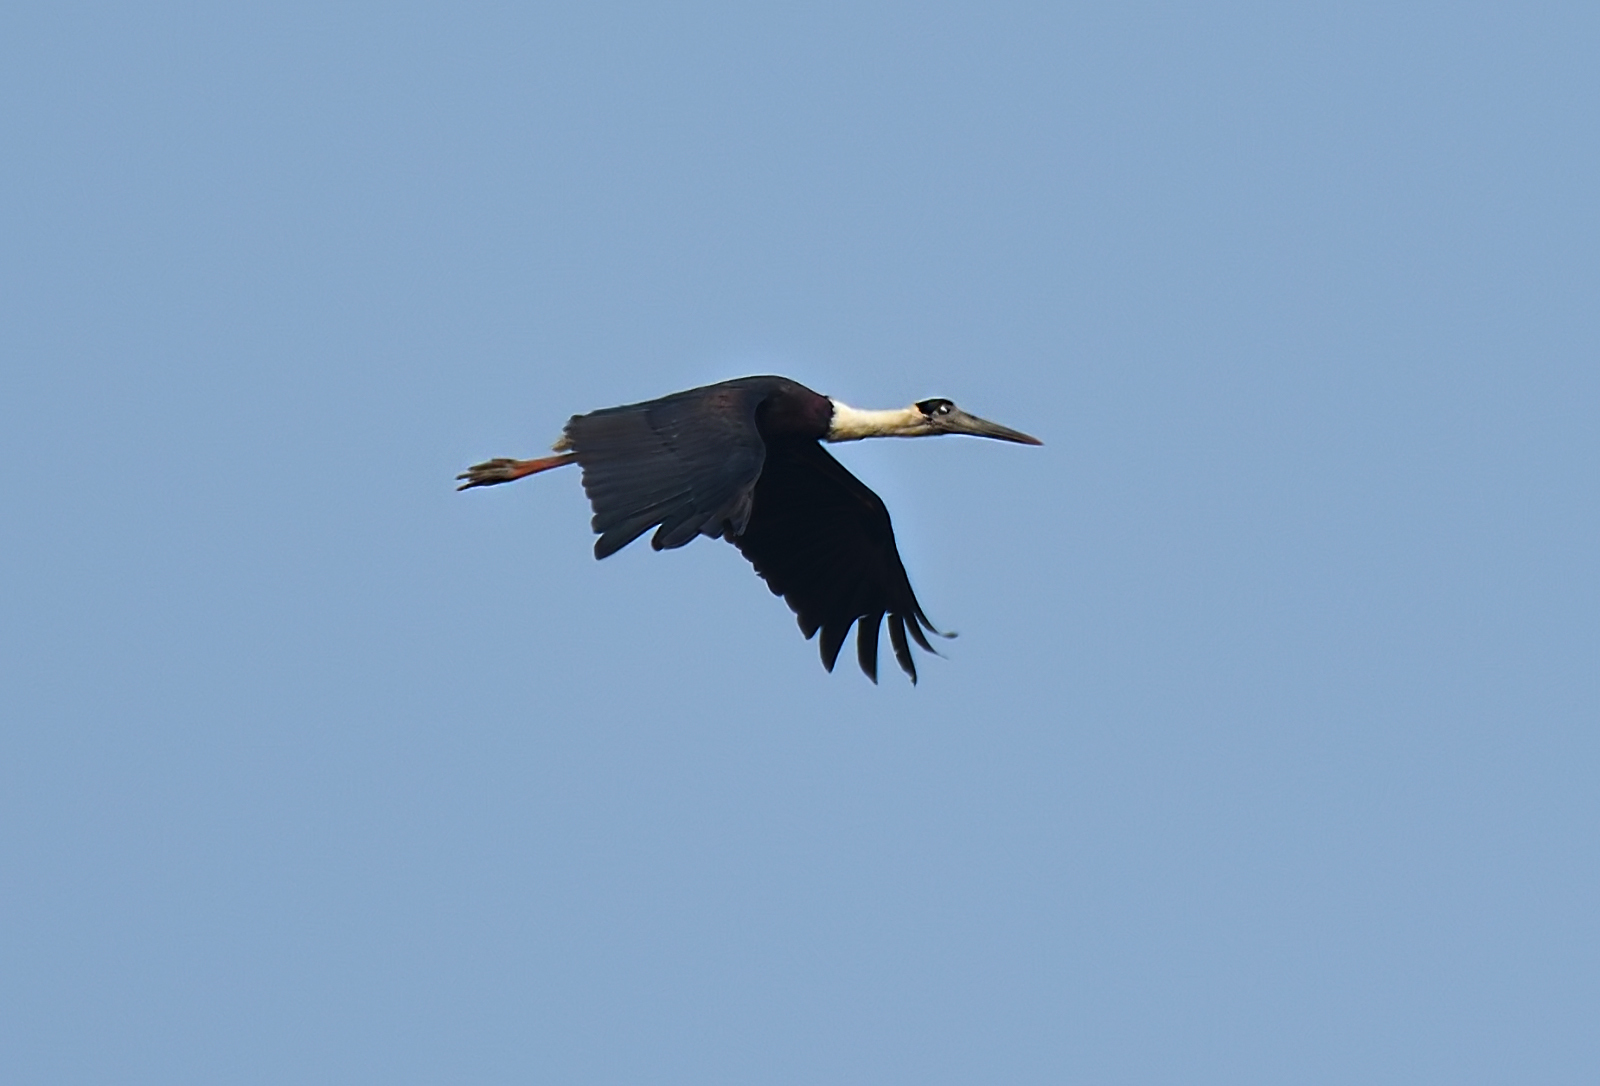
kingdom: Animalia
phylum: Chordata
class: Aves
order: Ciconiiformes
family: Ciconiidae
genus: Ciconia
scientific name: Ciconia episcopus
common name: Woolly-necked stork
